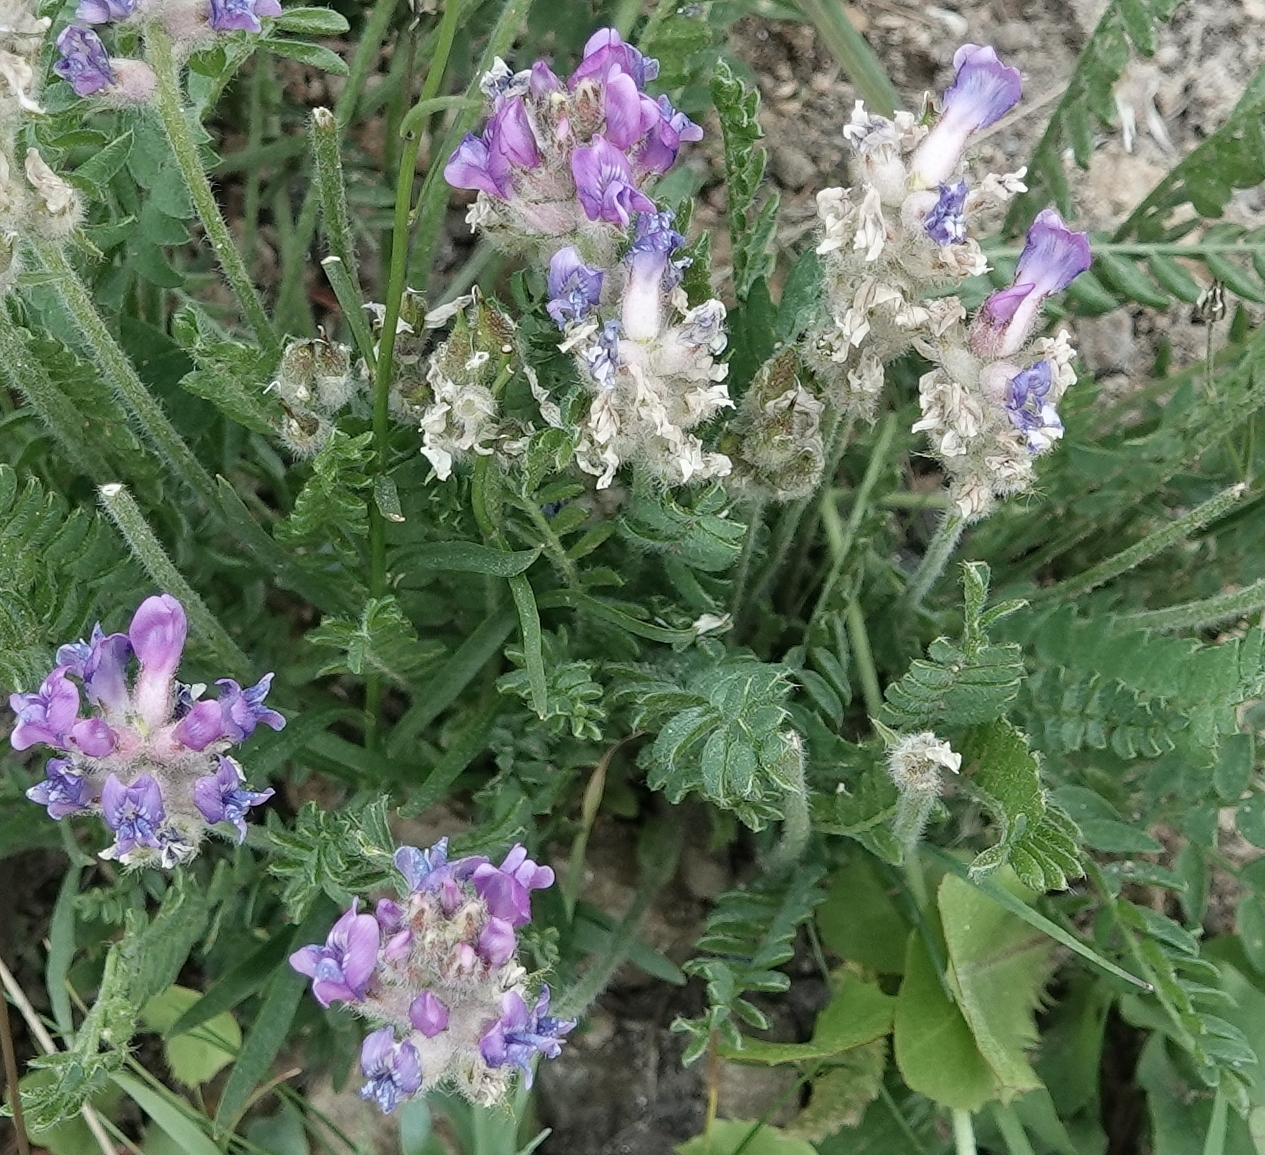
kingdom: Plantae
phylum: Tracheophyta
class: Magnoliopsida
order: Fabales
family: Fabaceae
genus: Oxytropis
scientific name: Oxytropis borealis
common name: Boreal locoweed
